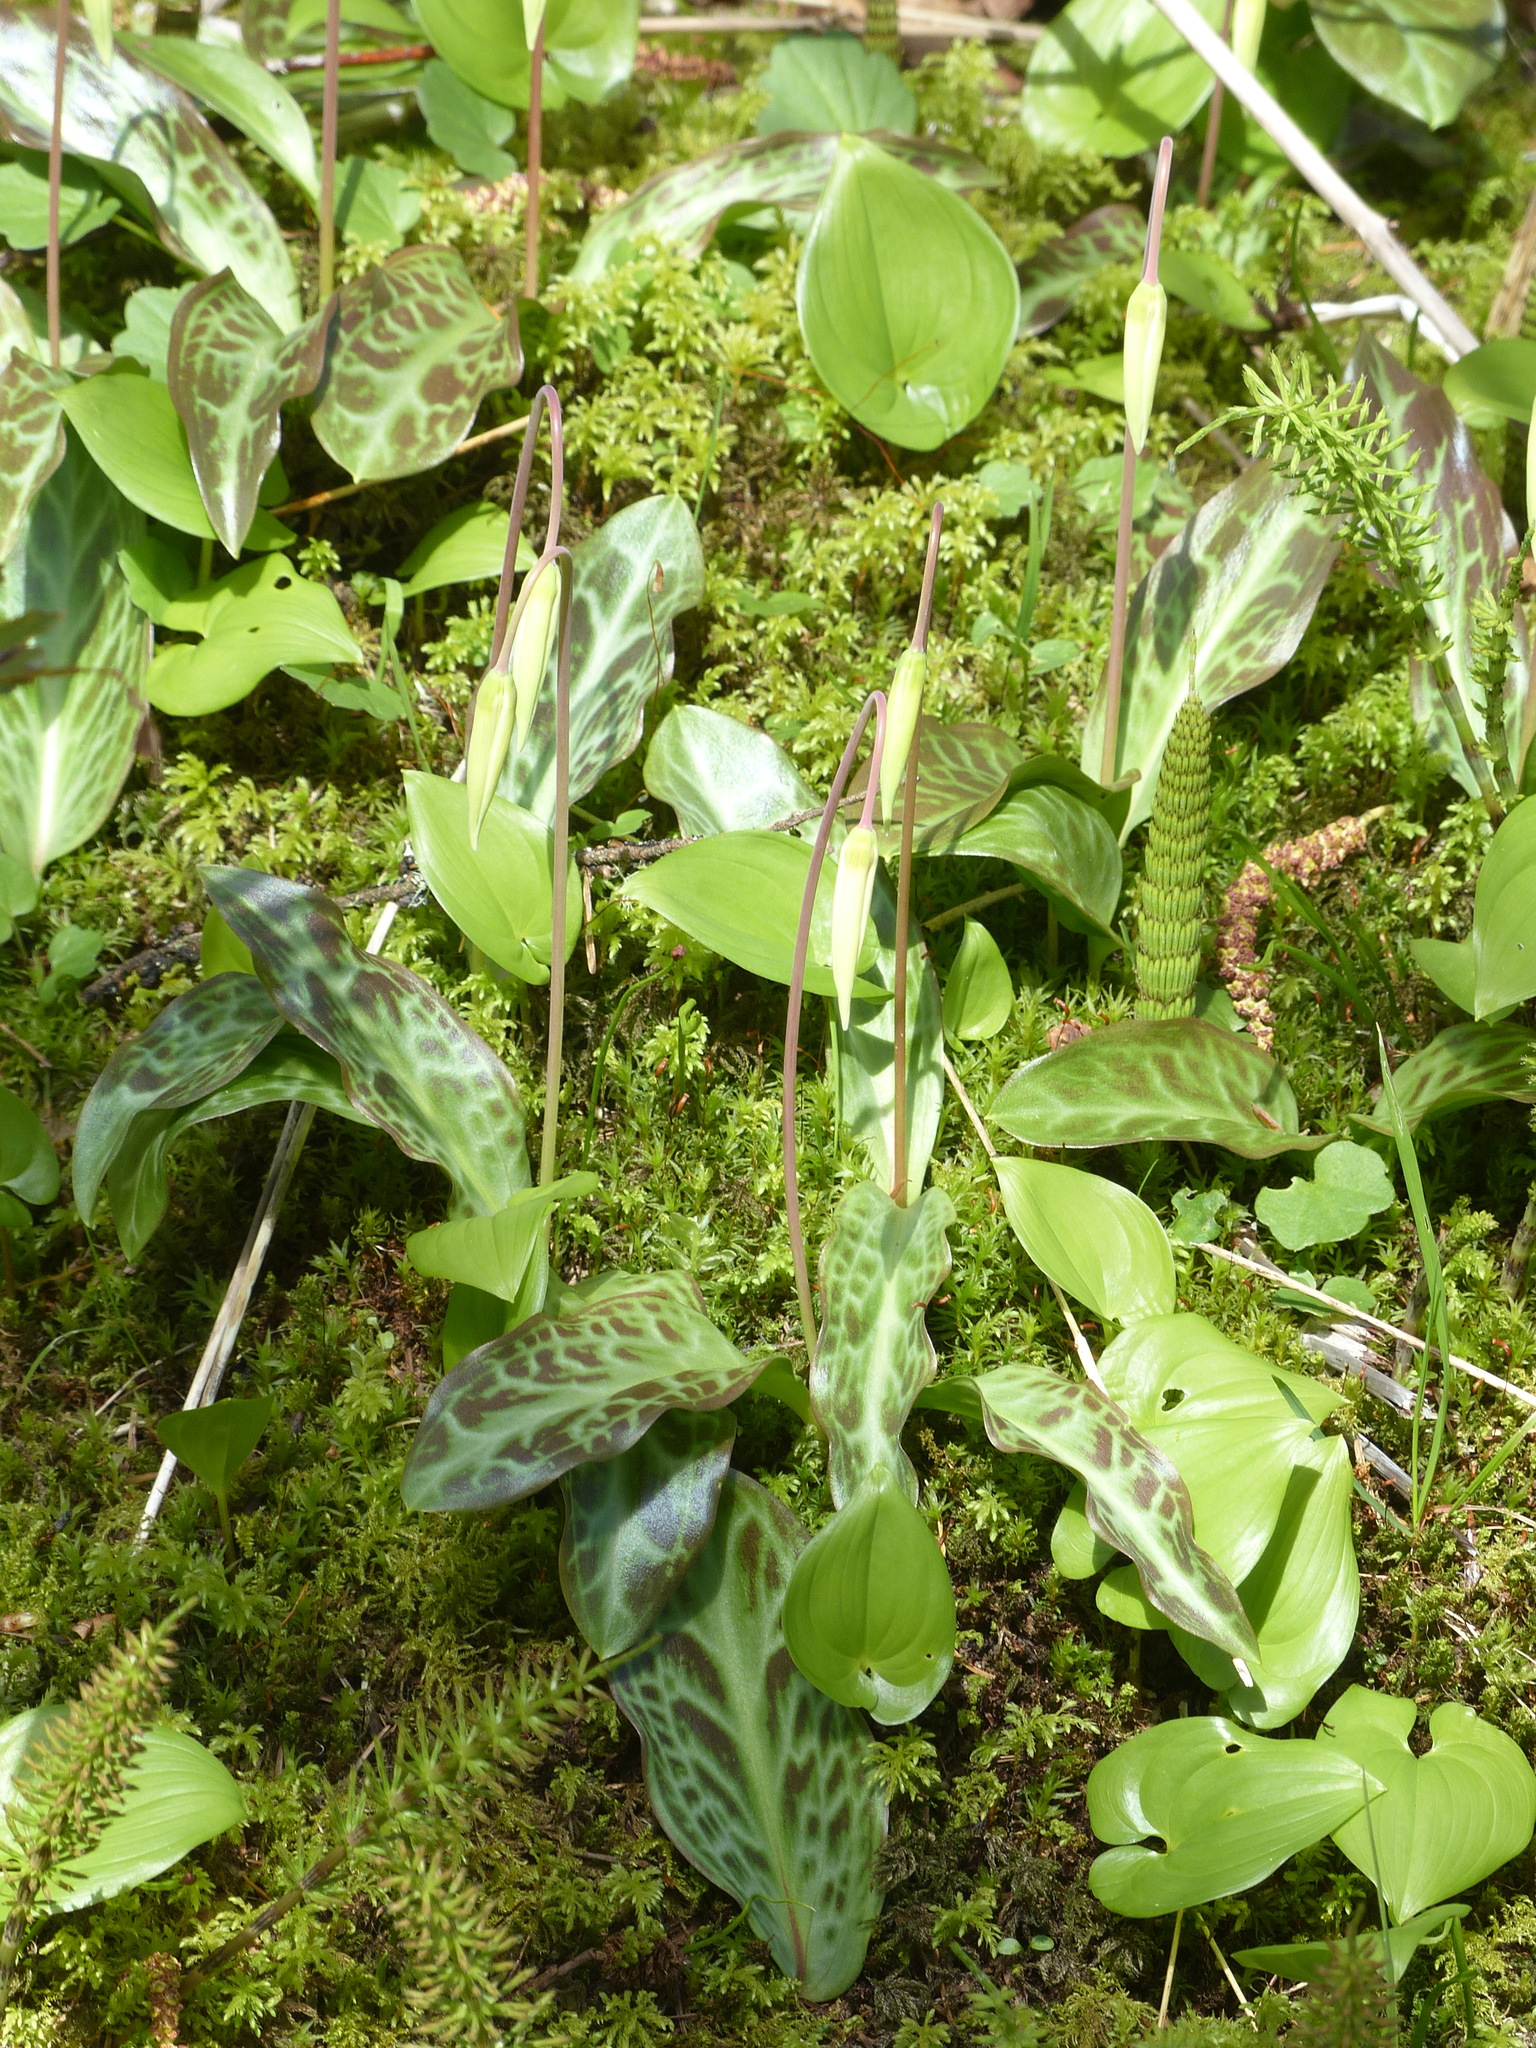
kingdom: Plantae
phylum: Tracheophyta
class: Liliopsida
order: Liliales
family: Liliaceae
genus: Erythronium
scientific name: Erythronium oregonum
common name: Giant adder's-tongue
